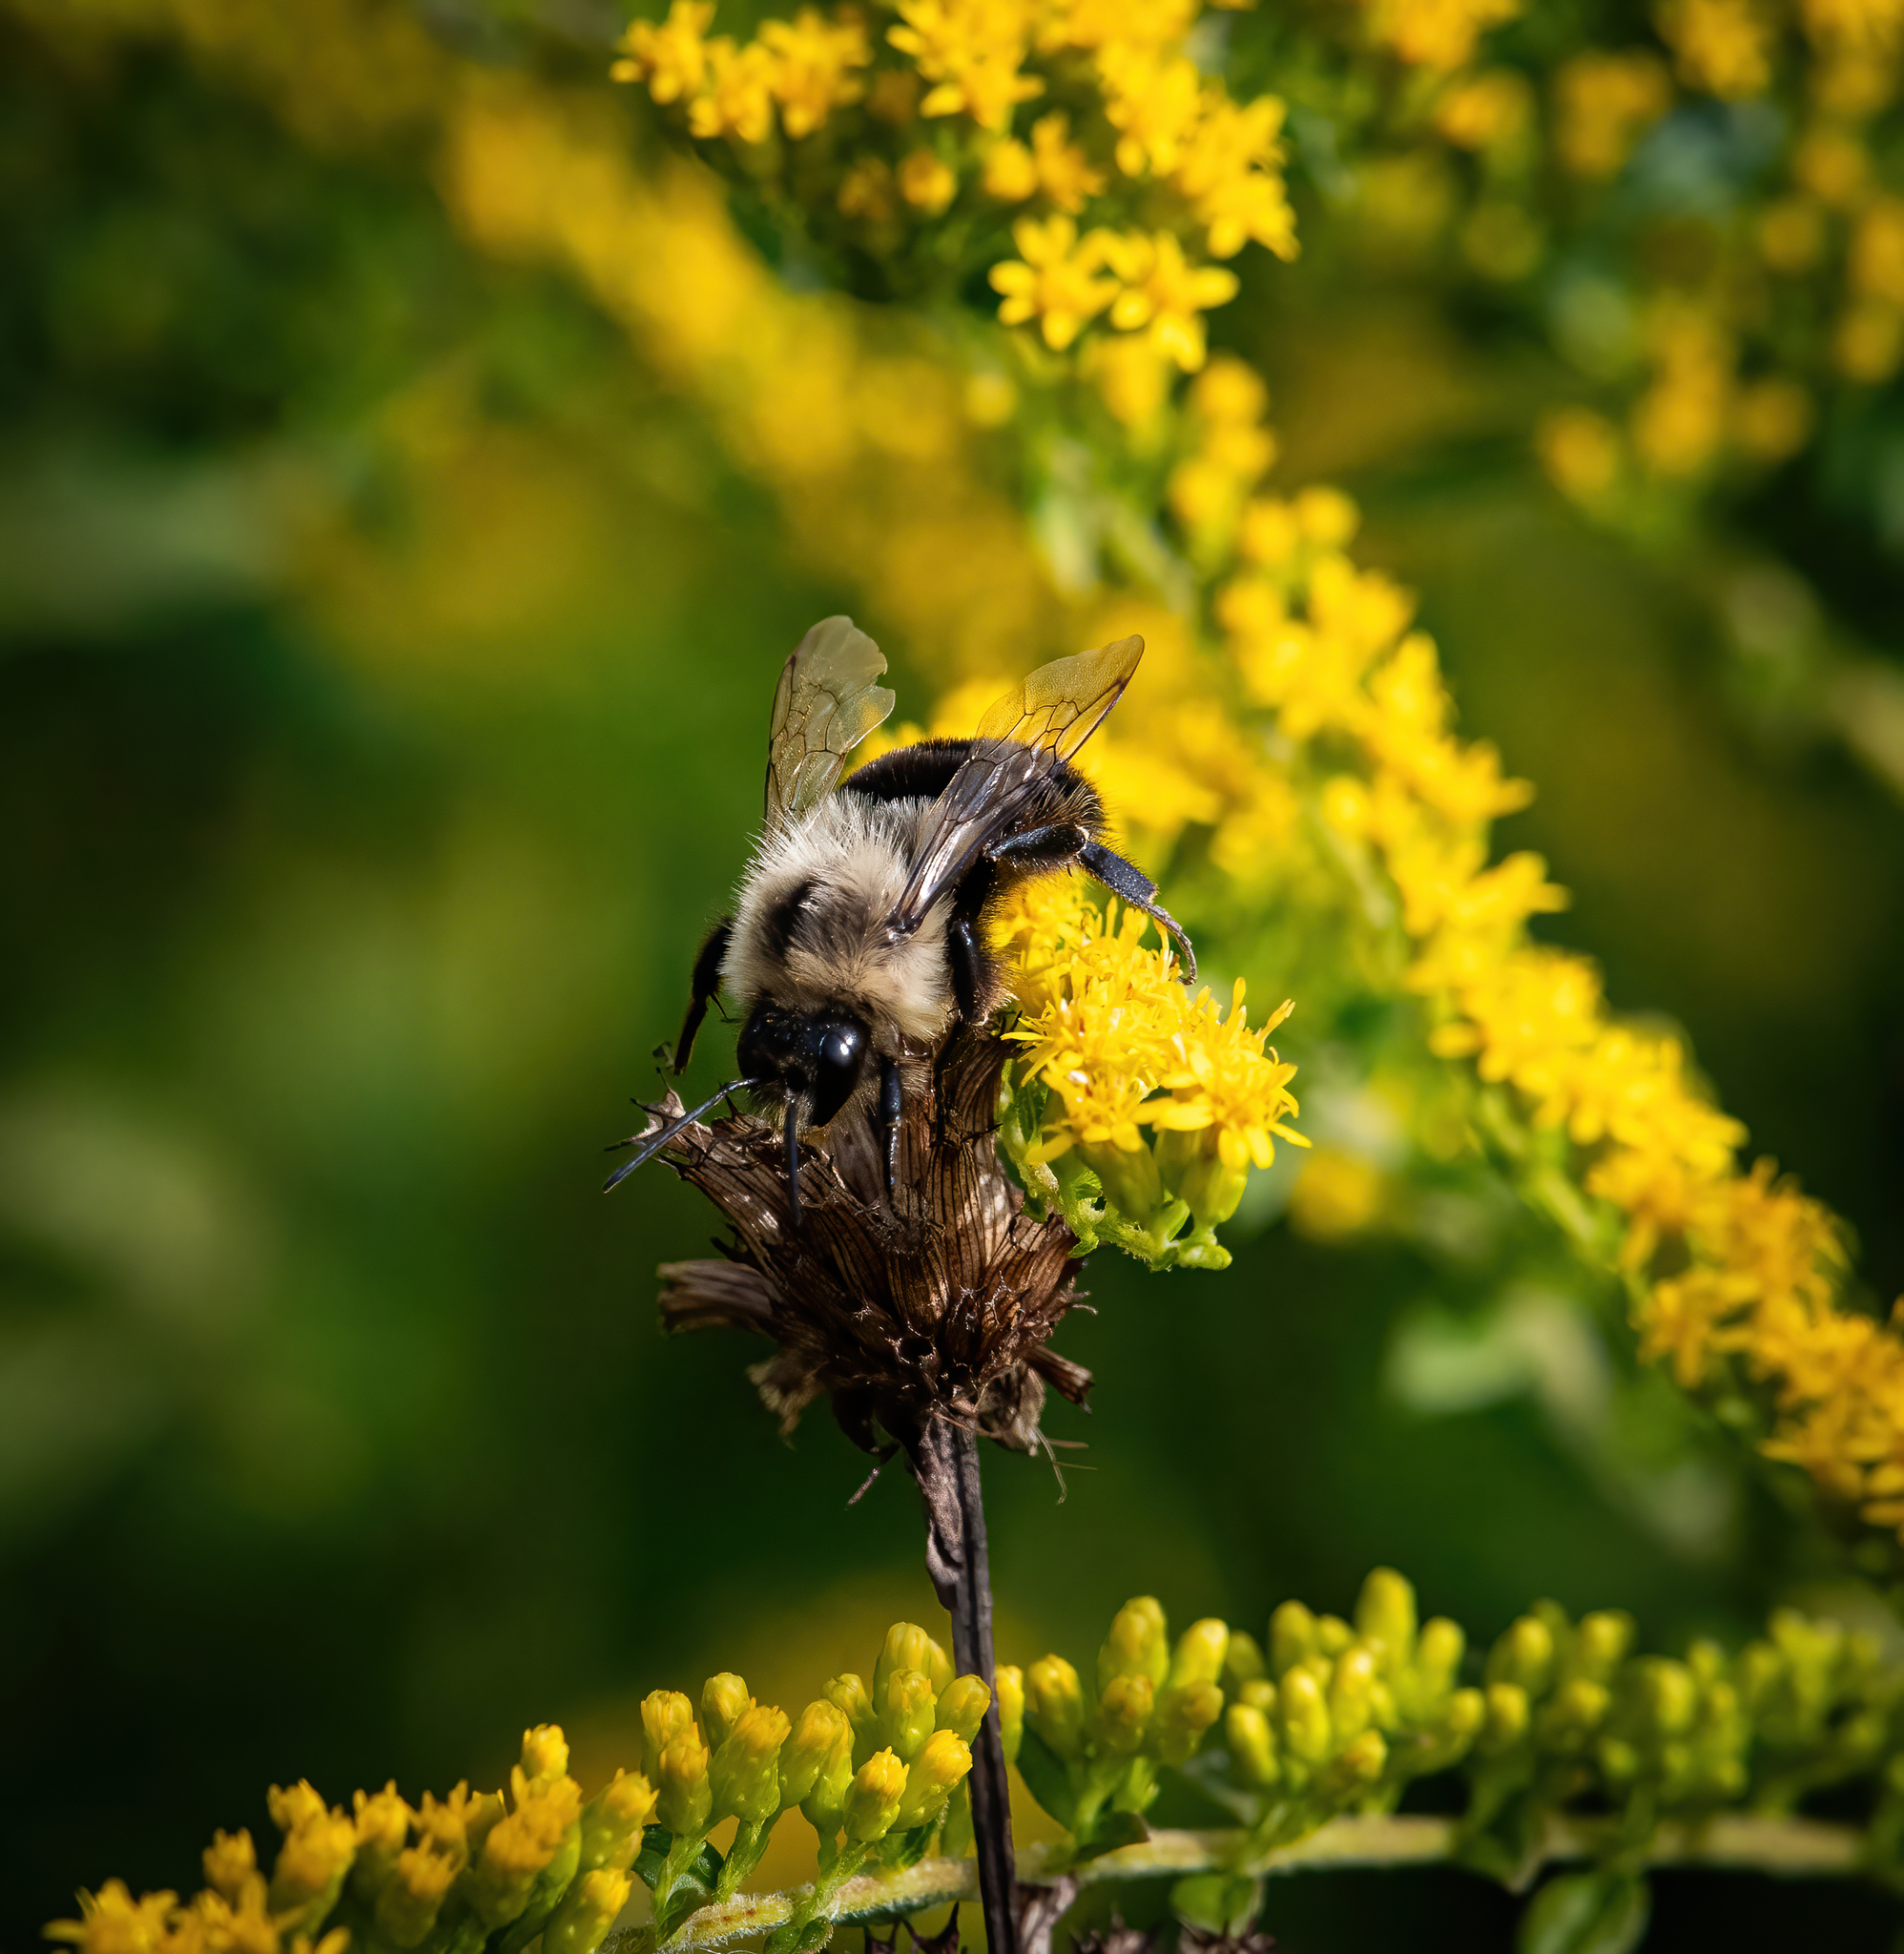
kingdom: Animalia
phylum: Arthropoda
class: Insecta
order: Hymenoptera
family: Apidae
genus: Bombus
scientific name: Bombus impatiens
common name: Common eastern bumble bee
